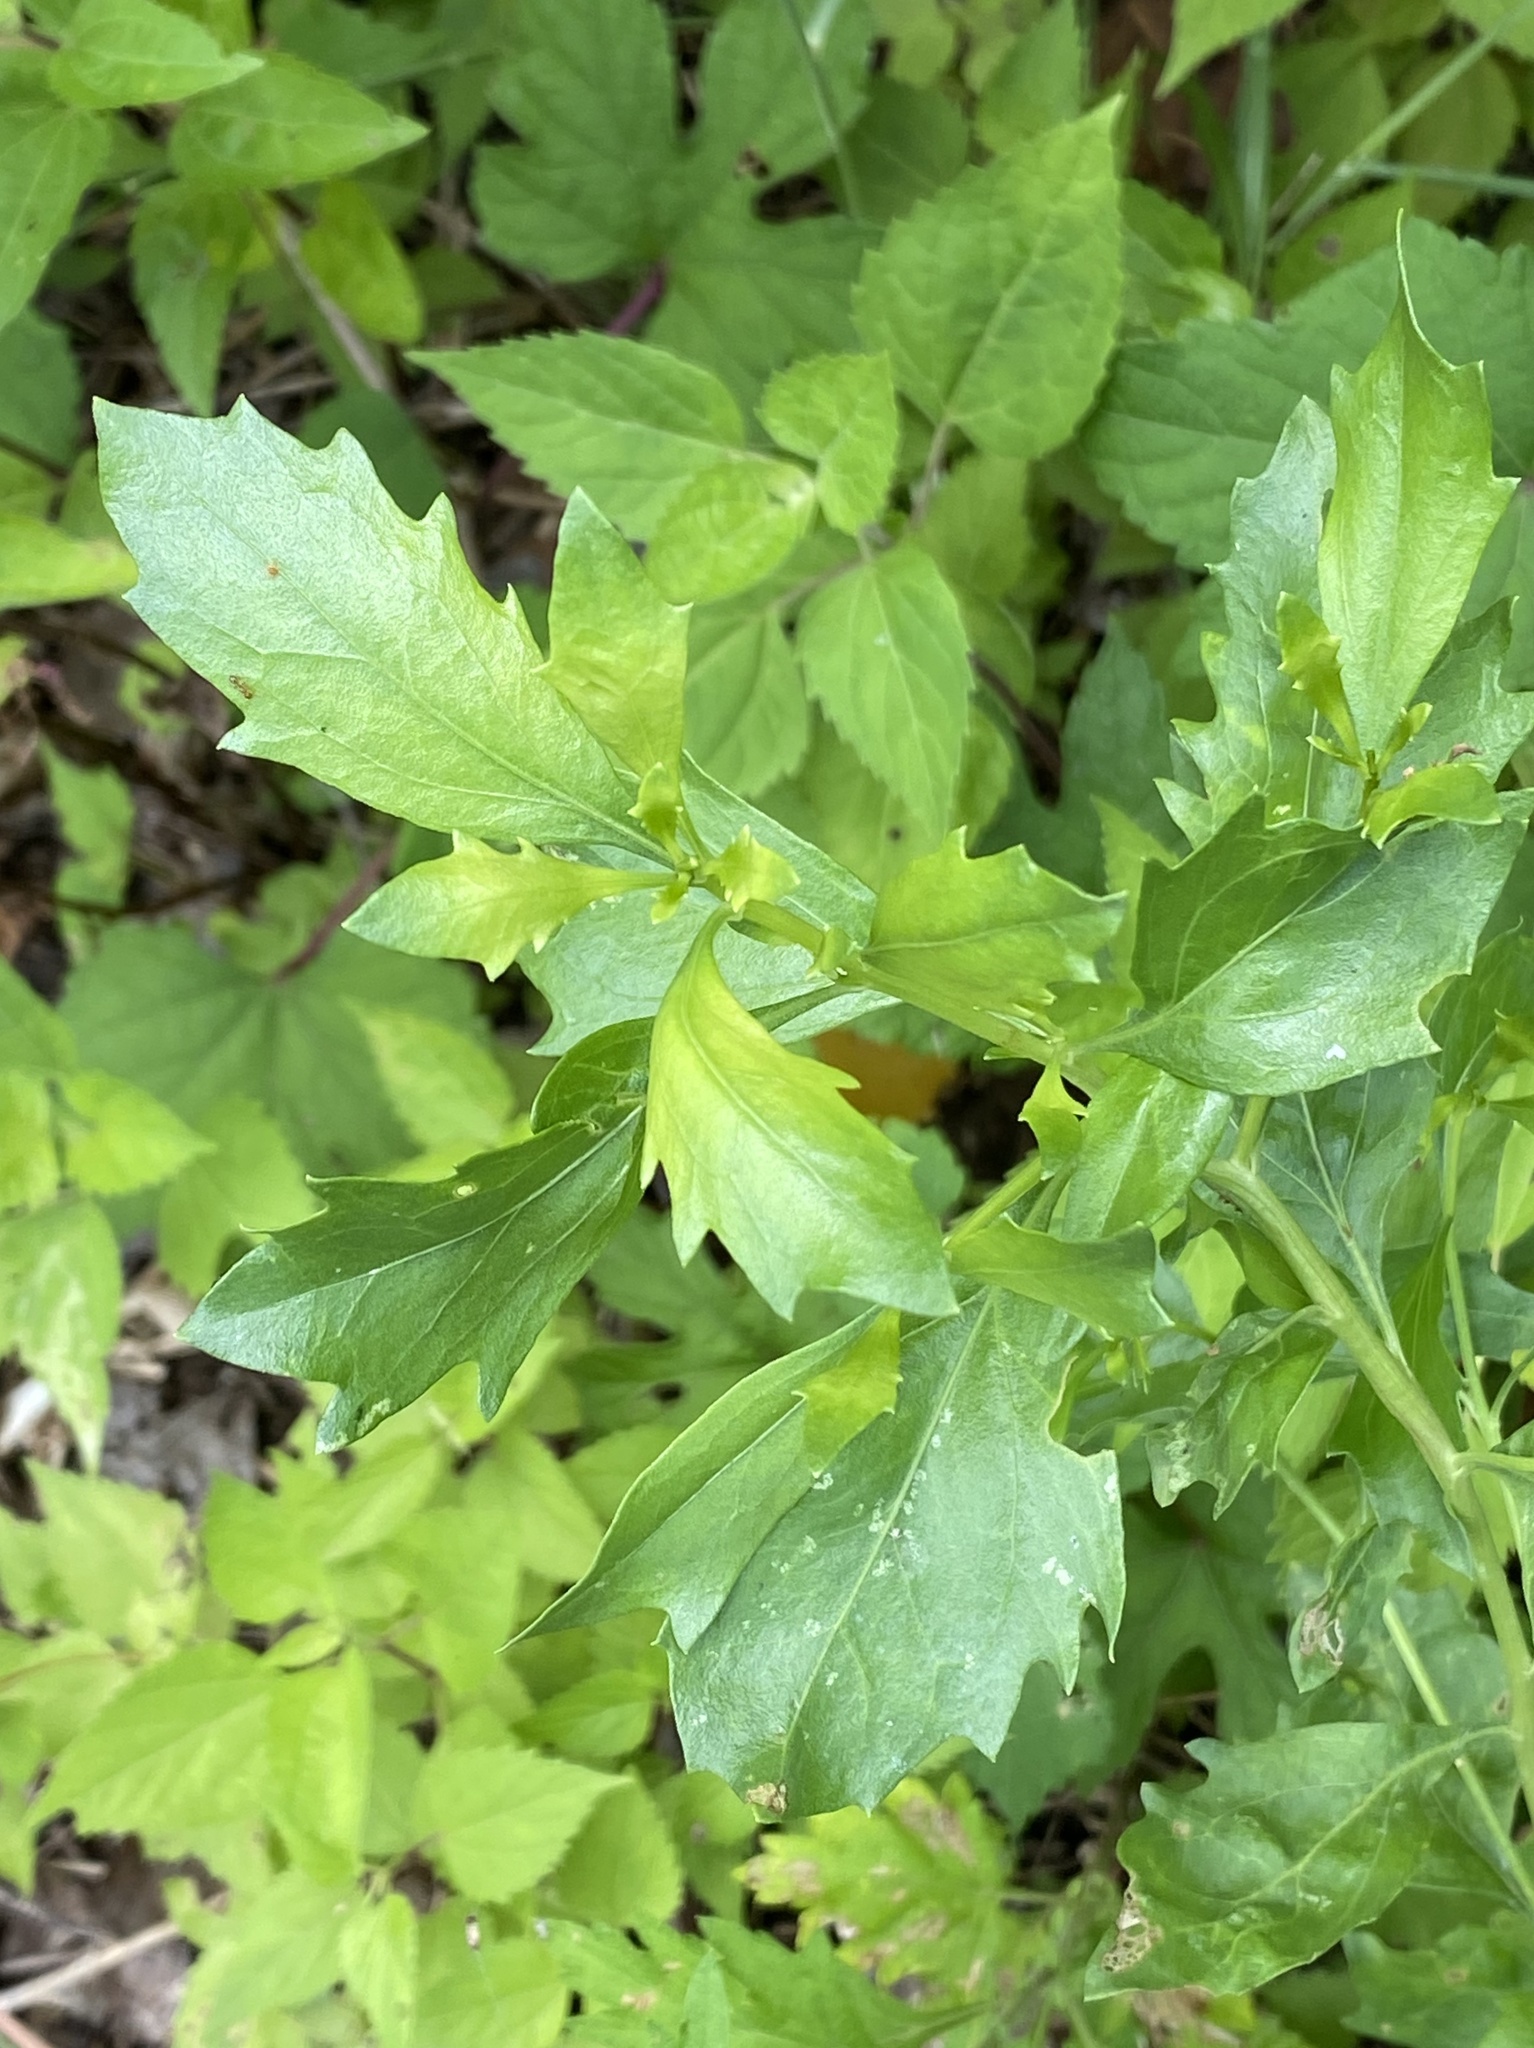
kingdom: Plantae
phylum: Tracheophyta
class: Magnoliopsida
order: Asterales
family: Asteraceae
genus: Baccharis
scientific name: Baccharis halimifolia
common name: Eastern baccharis
